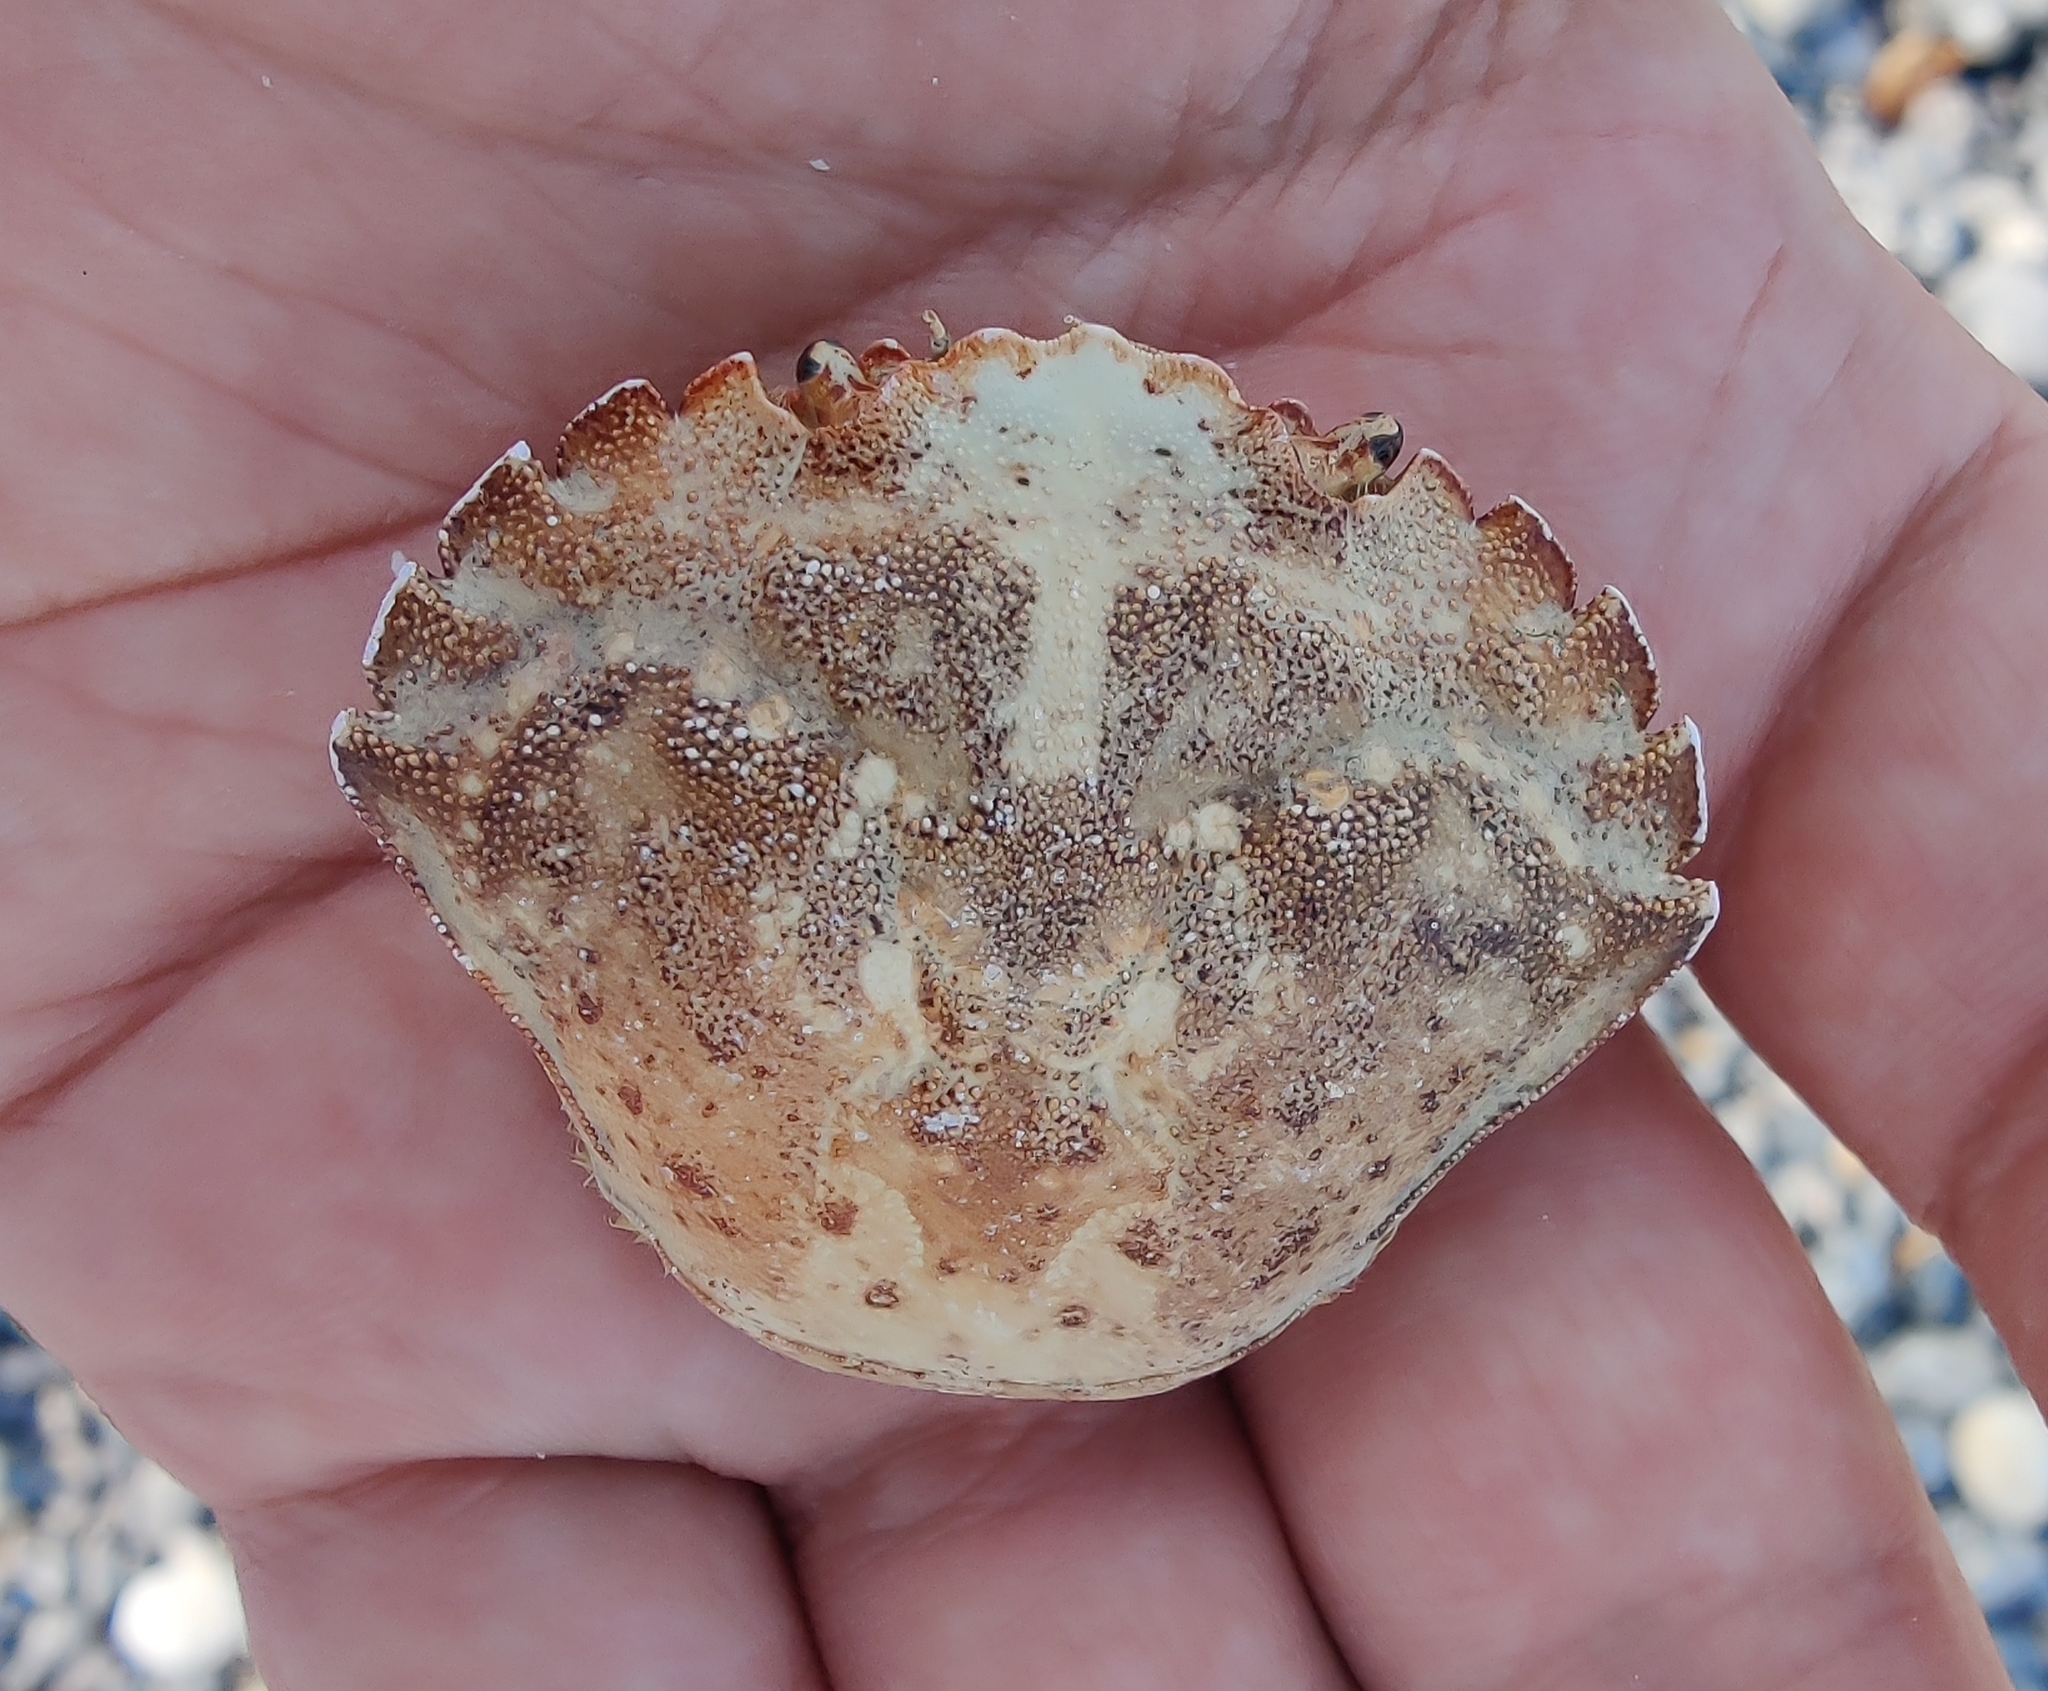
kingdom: Animalia
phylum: Arthropoda
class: Malacostraca
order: Decapoda
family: Carcinidae
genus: Carcinus
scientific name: Carcinus maenas
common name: European green crab
